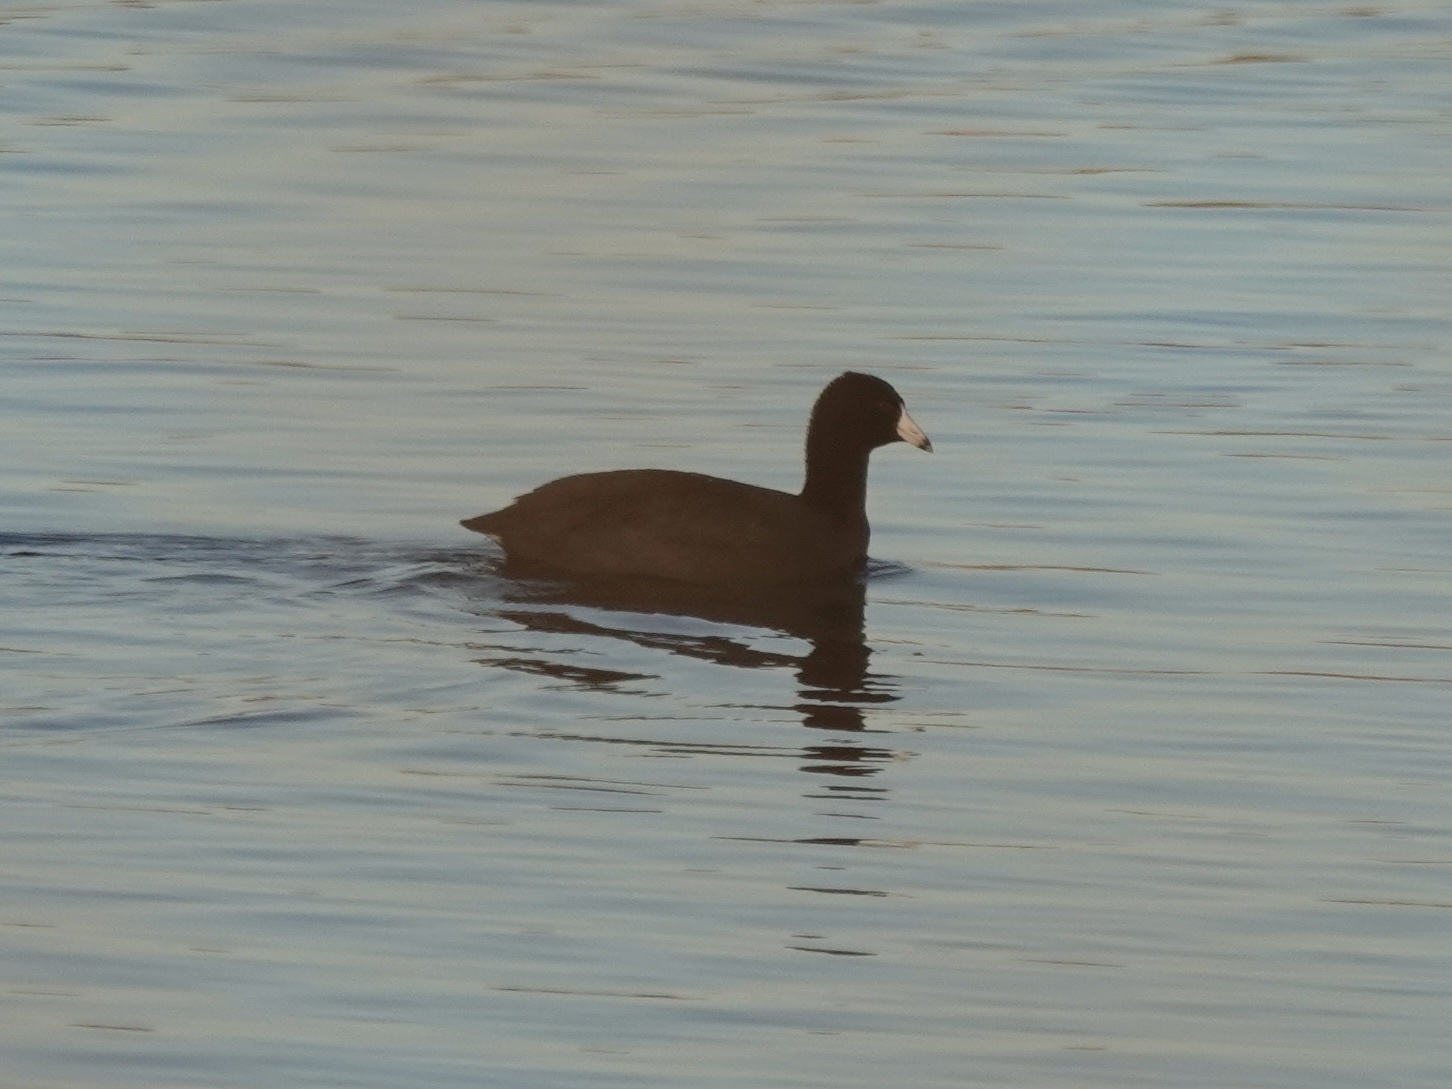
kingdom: Animalia
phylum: Chordata
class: Aves
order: Gruiformes
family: Rallidae
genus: Fulica
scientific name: Fulica americana
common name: American coot
